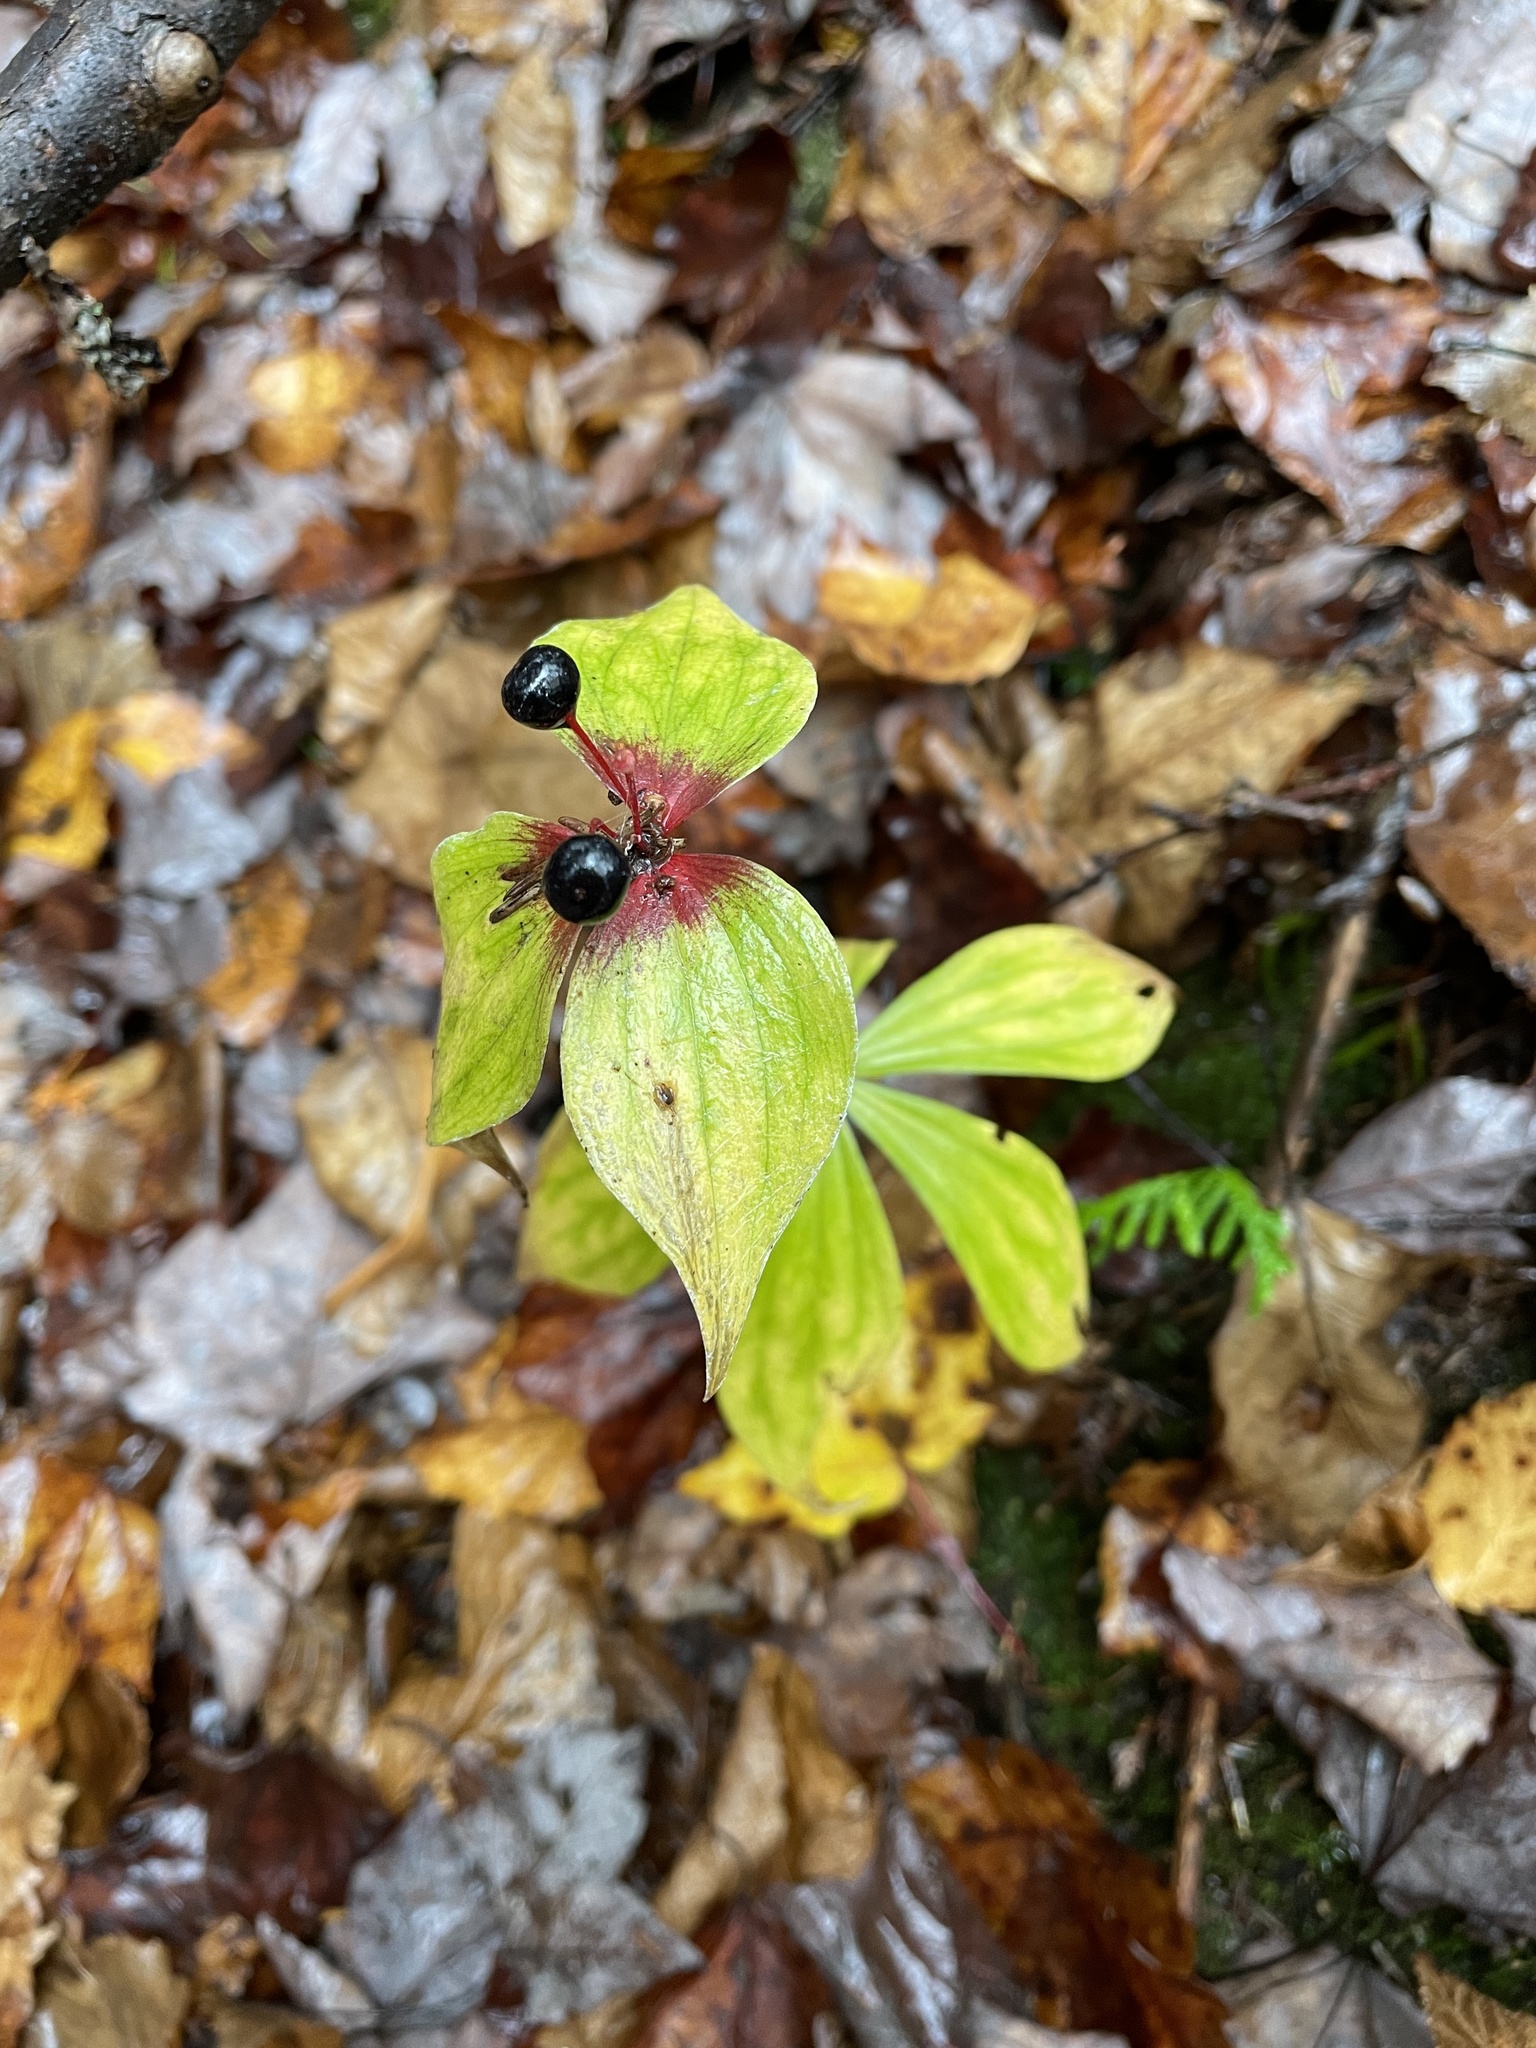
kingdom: Plantae
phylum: Tracheophyta
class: Liliopsida
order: Liliales
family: Liliaceae
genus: Medeola
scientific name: Medeola virginiana
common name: Indian cucumber-root
